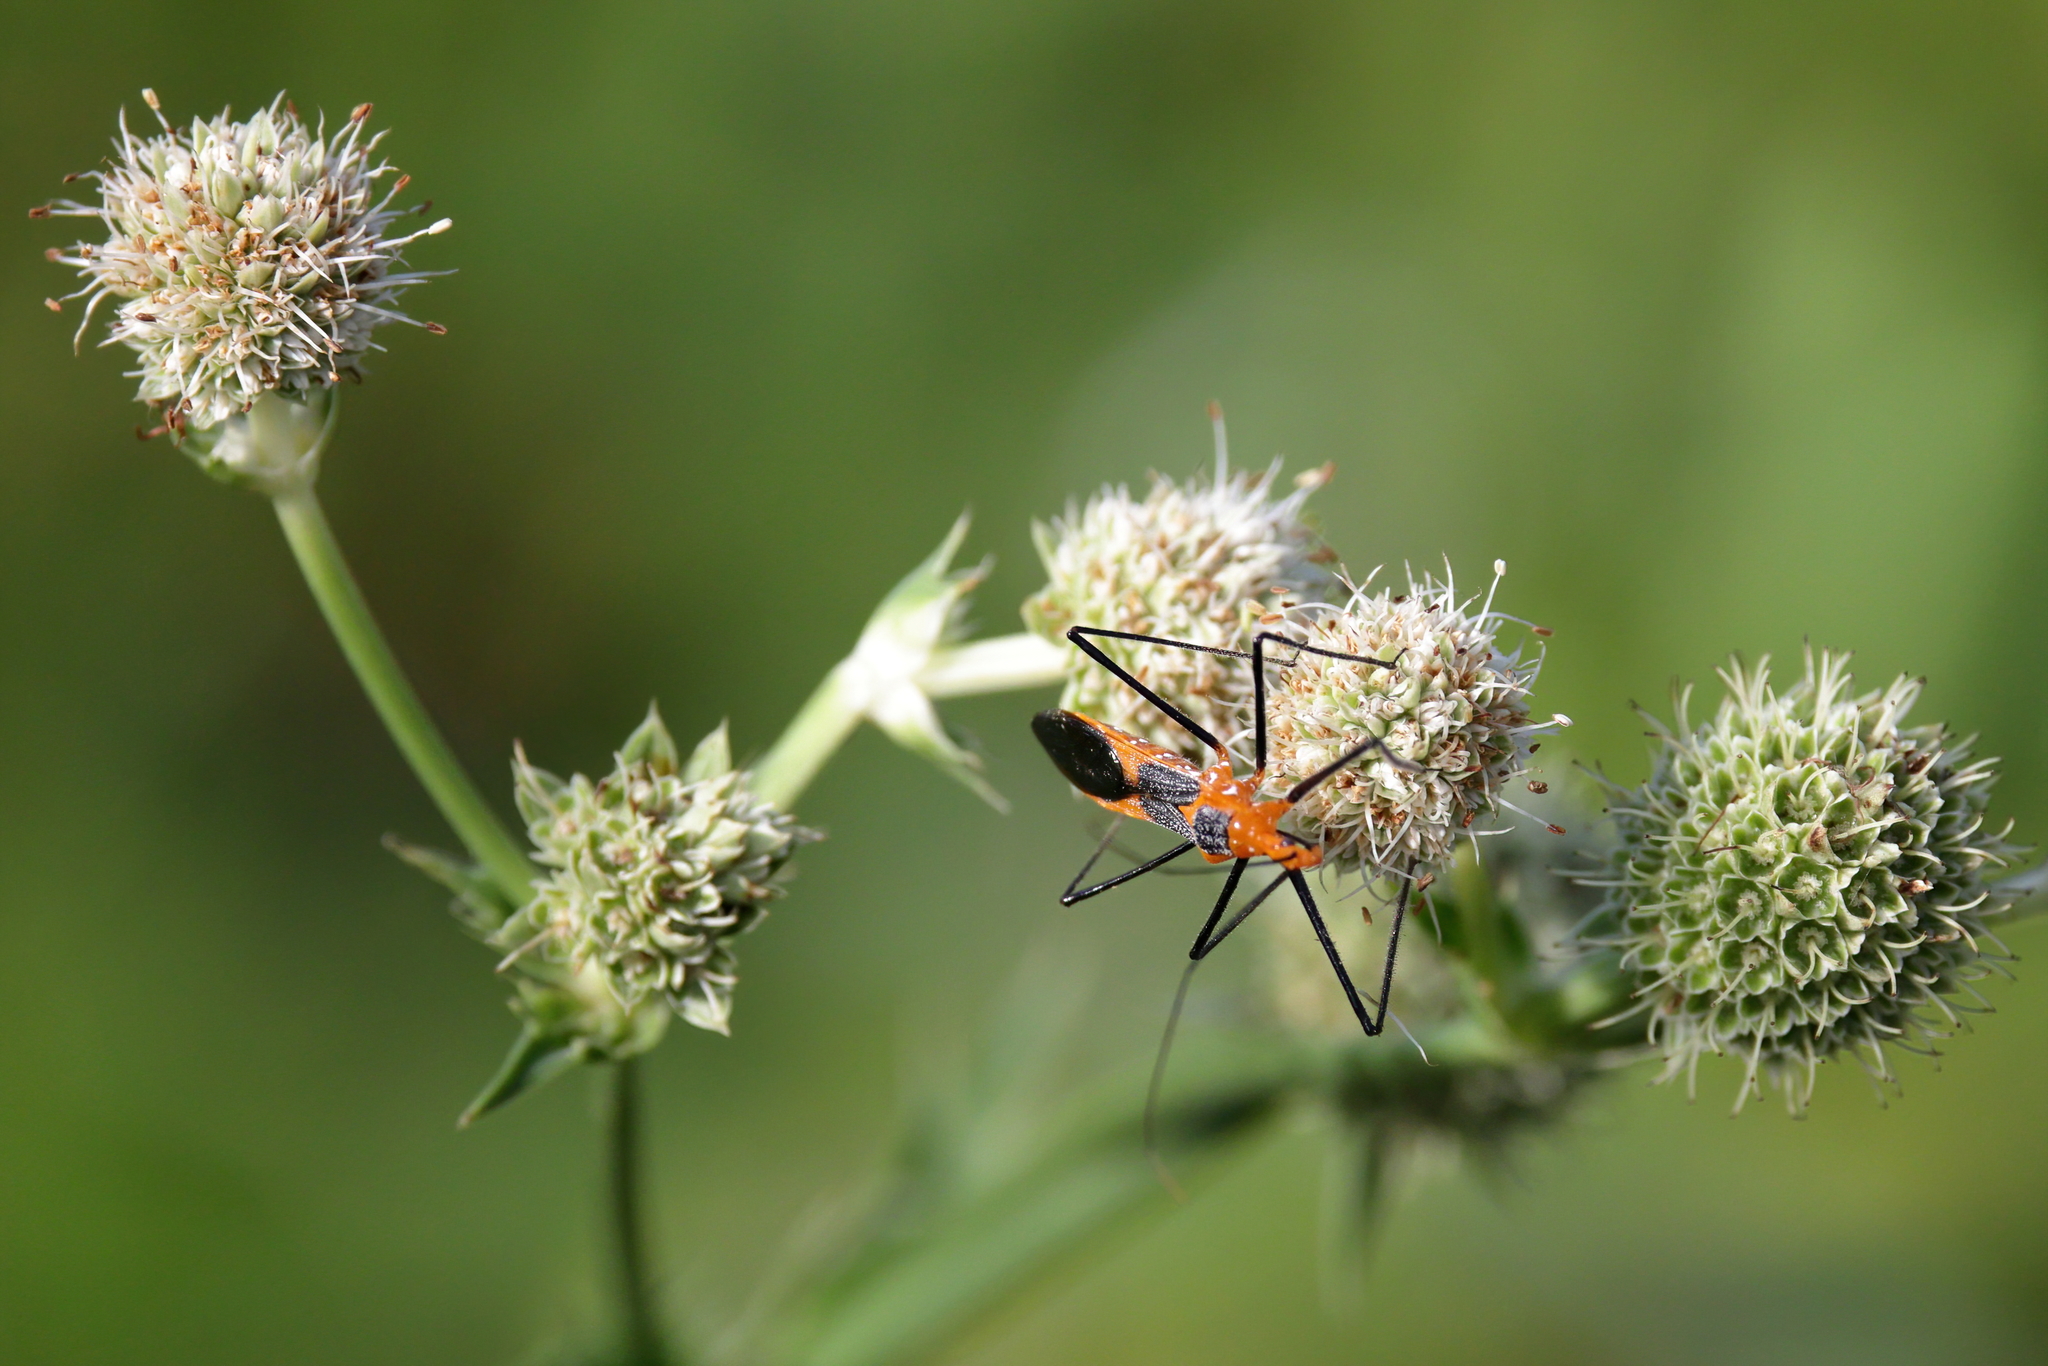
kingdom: Animalia
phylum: Arthropoda
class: Insecta
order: Hemiptera
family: Reduviidae
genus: Zelus
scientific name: Zelus longipes
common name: Milkweed assassin bug
